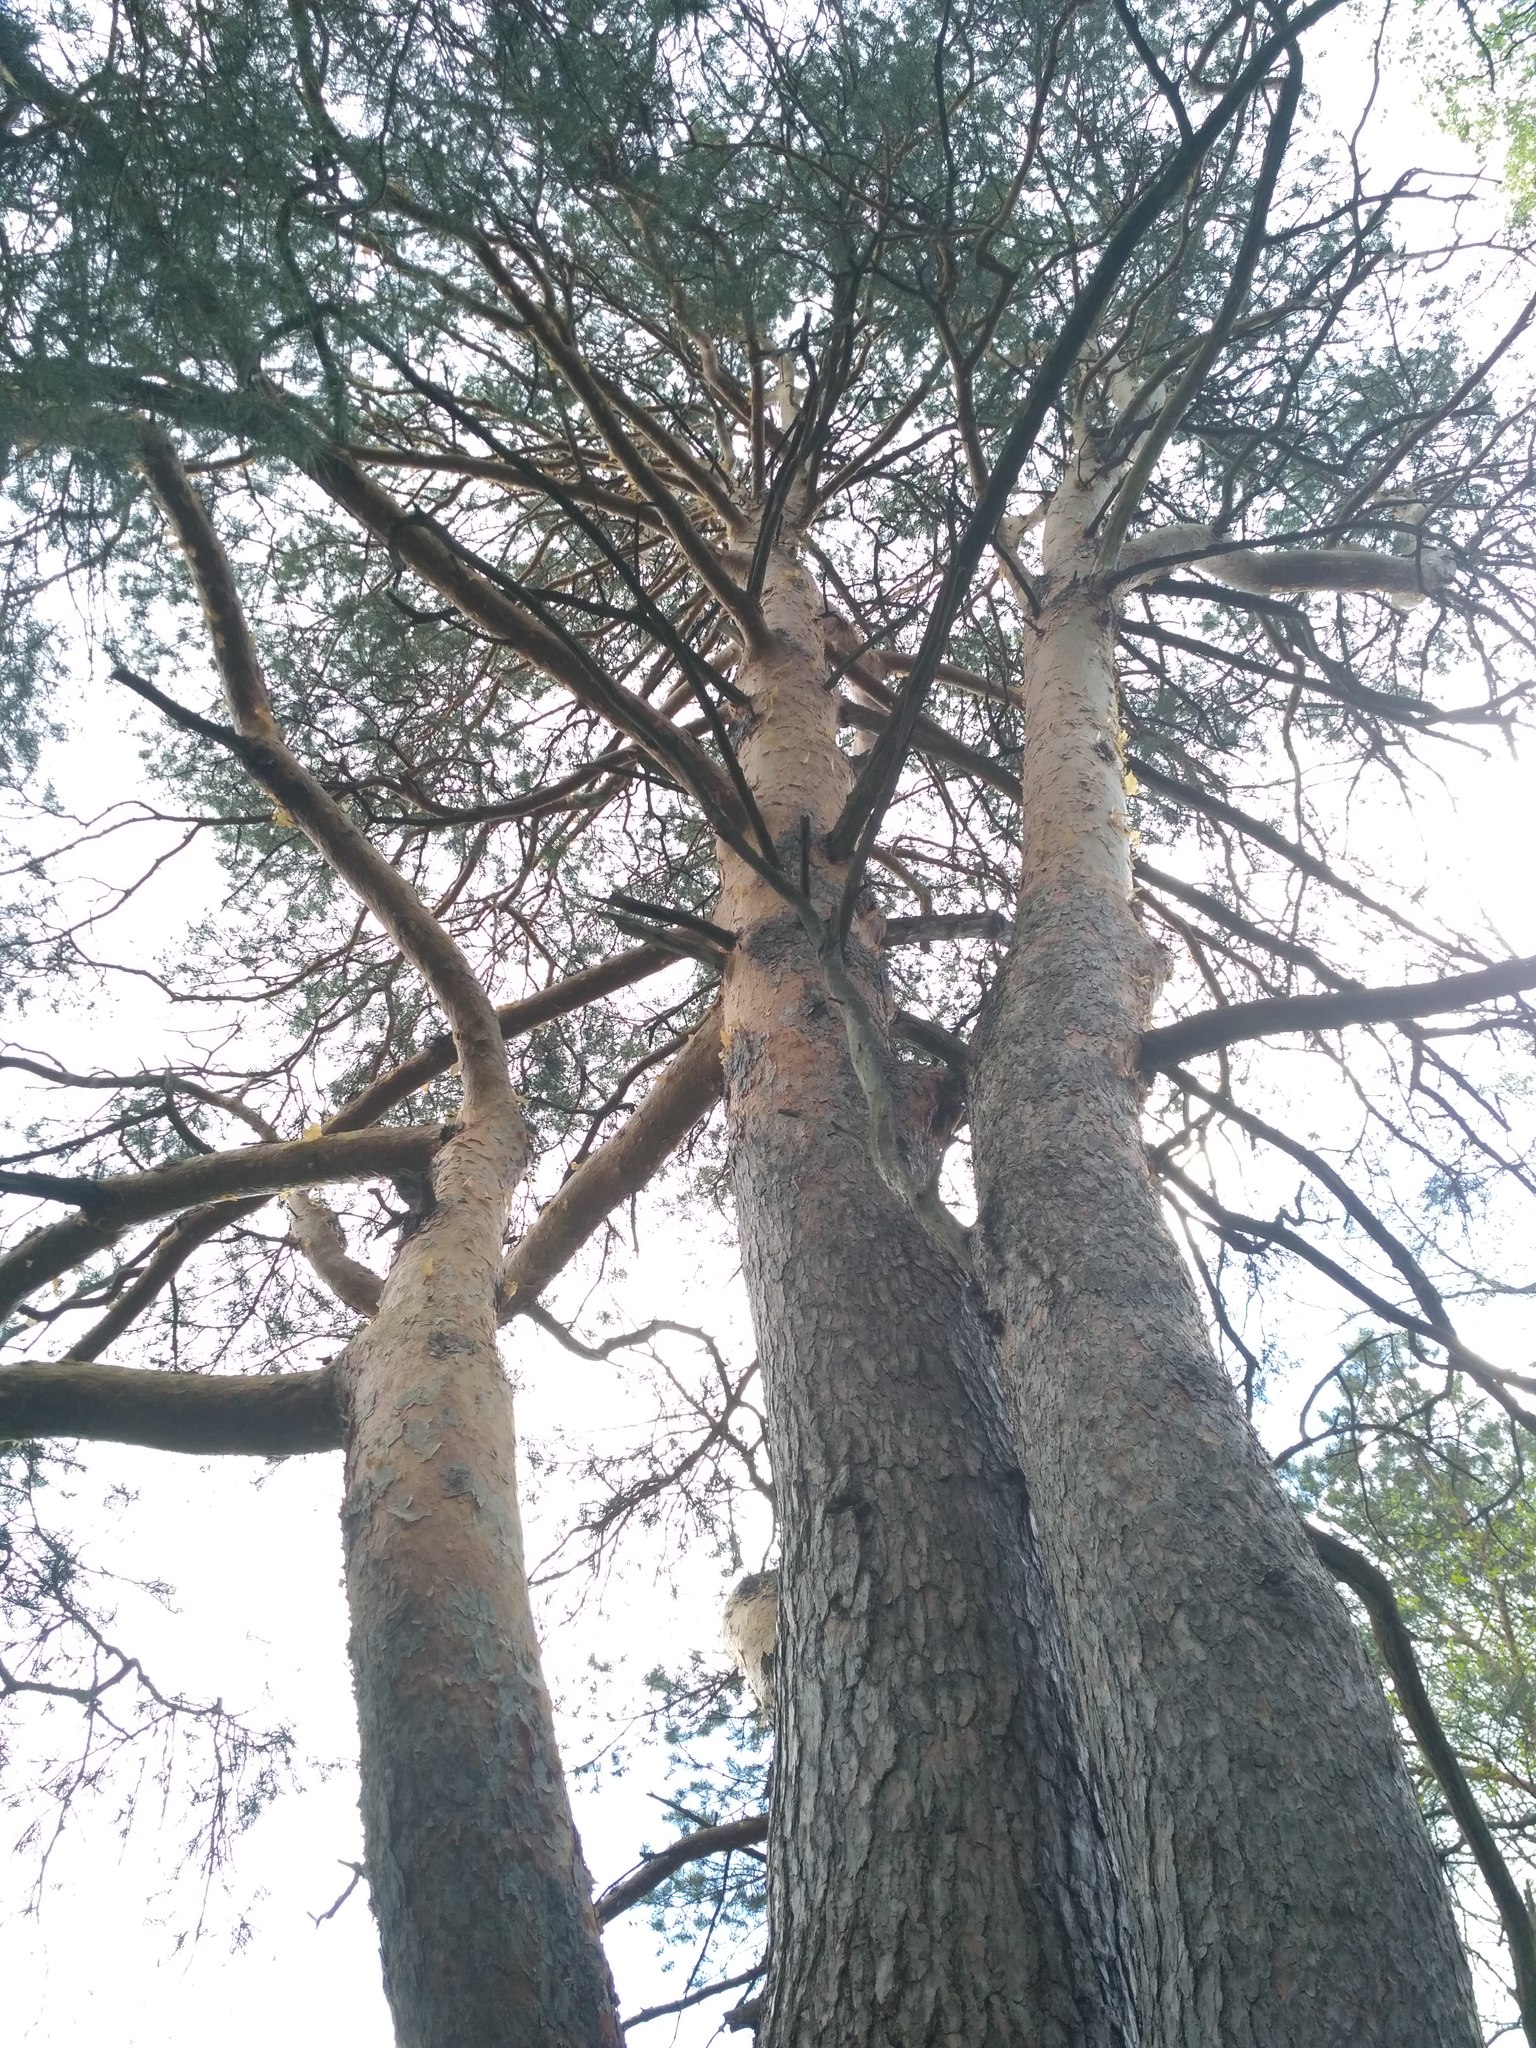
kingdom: Plantae
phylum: Tracheophyta
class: Pinopsida
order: Pinales
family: Pinaceae
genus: Pinus
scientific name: Pinus sylvestris
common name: Scots pine
